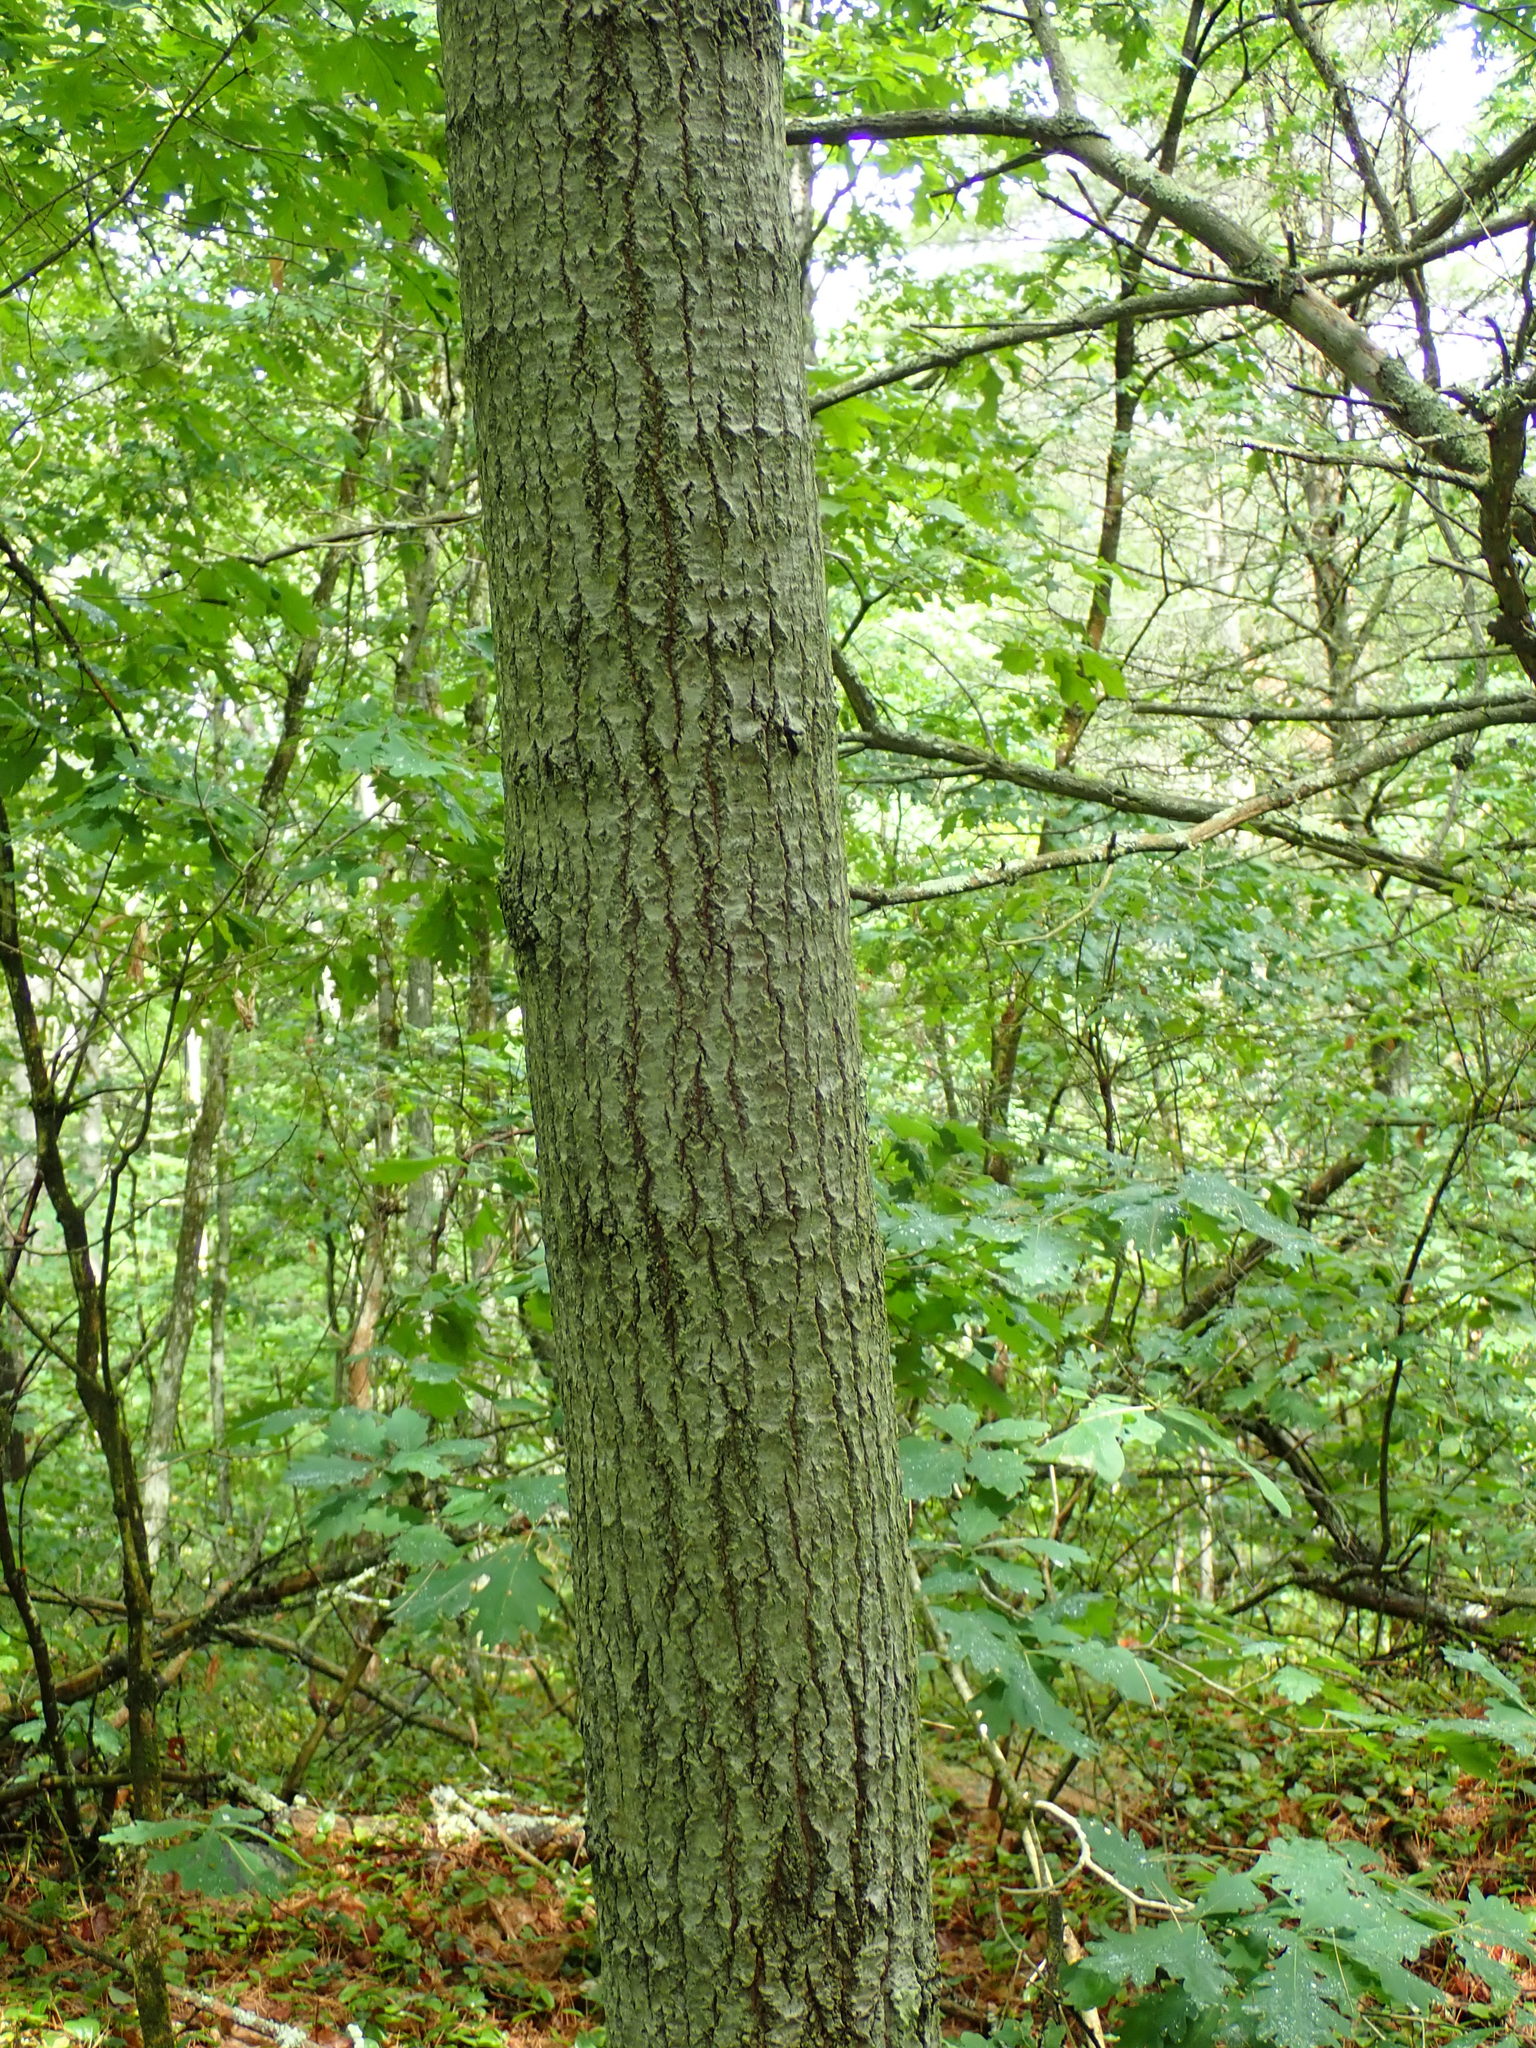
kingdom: Plantae
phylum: Tracheophyta
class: Magnoliopsida
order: Malpighiales
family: Salicaceae
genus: Populus
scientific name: Populus grandidentata
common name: Bigtooth aspen
